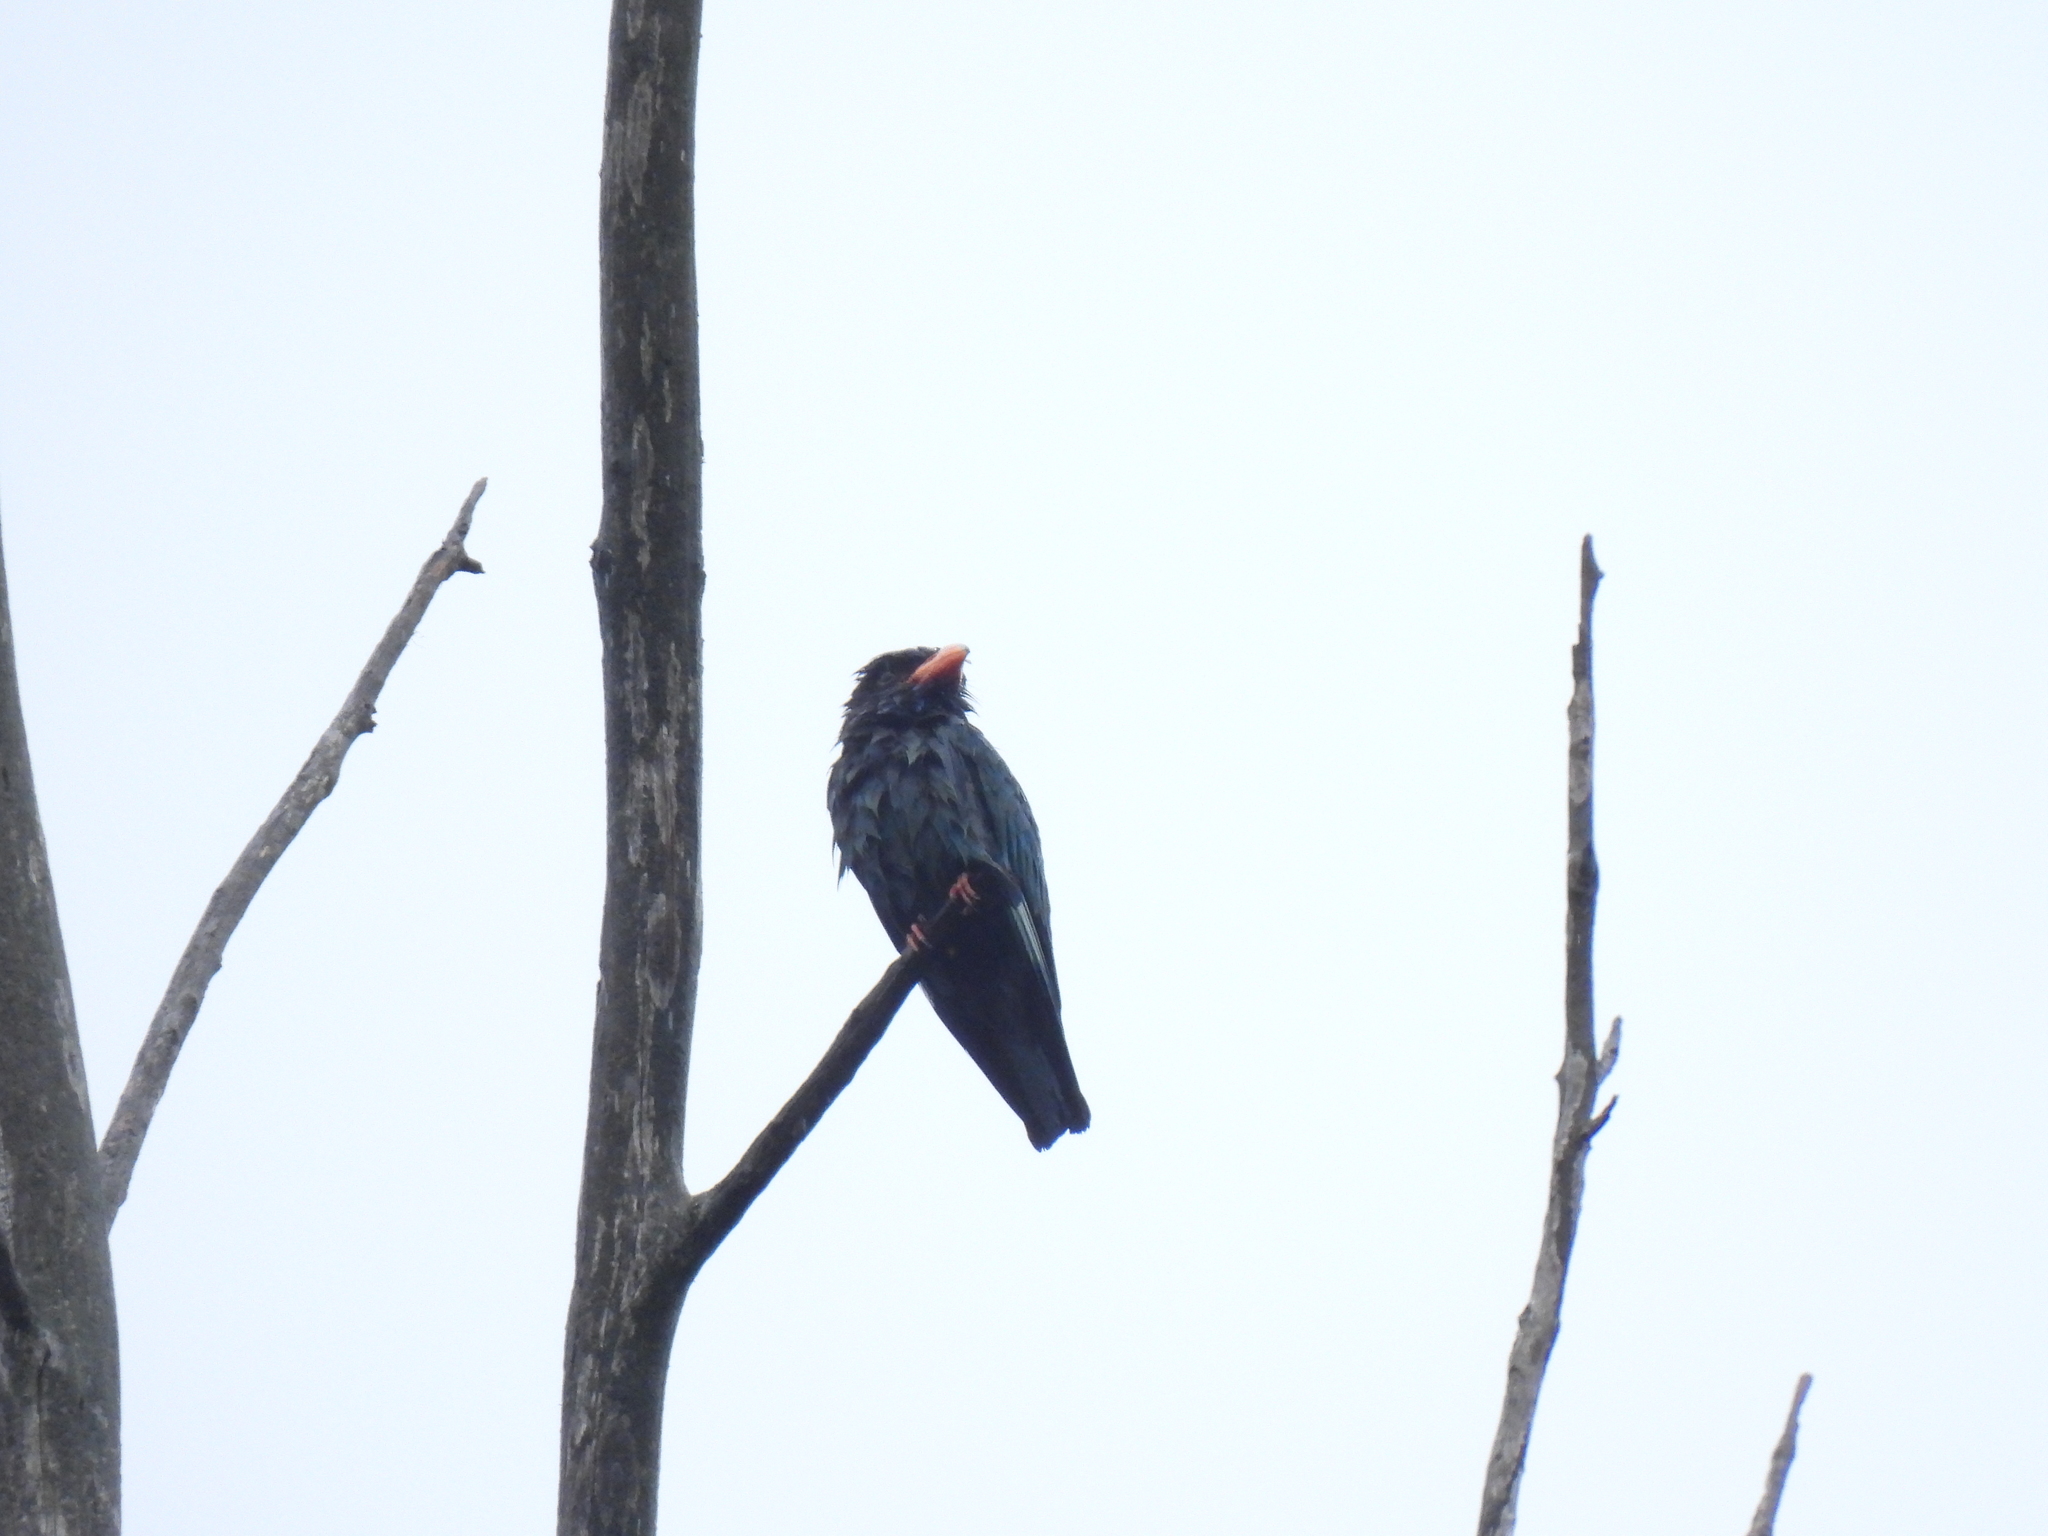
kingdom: Animalia
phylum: Chordata
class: Aves
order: Coraciiformes
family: Coraciidae
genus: Eurystomus
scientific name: Eurystomus orientalis
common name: Oriental dollarbird
